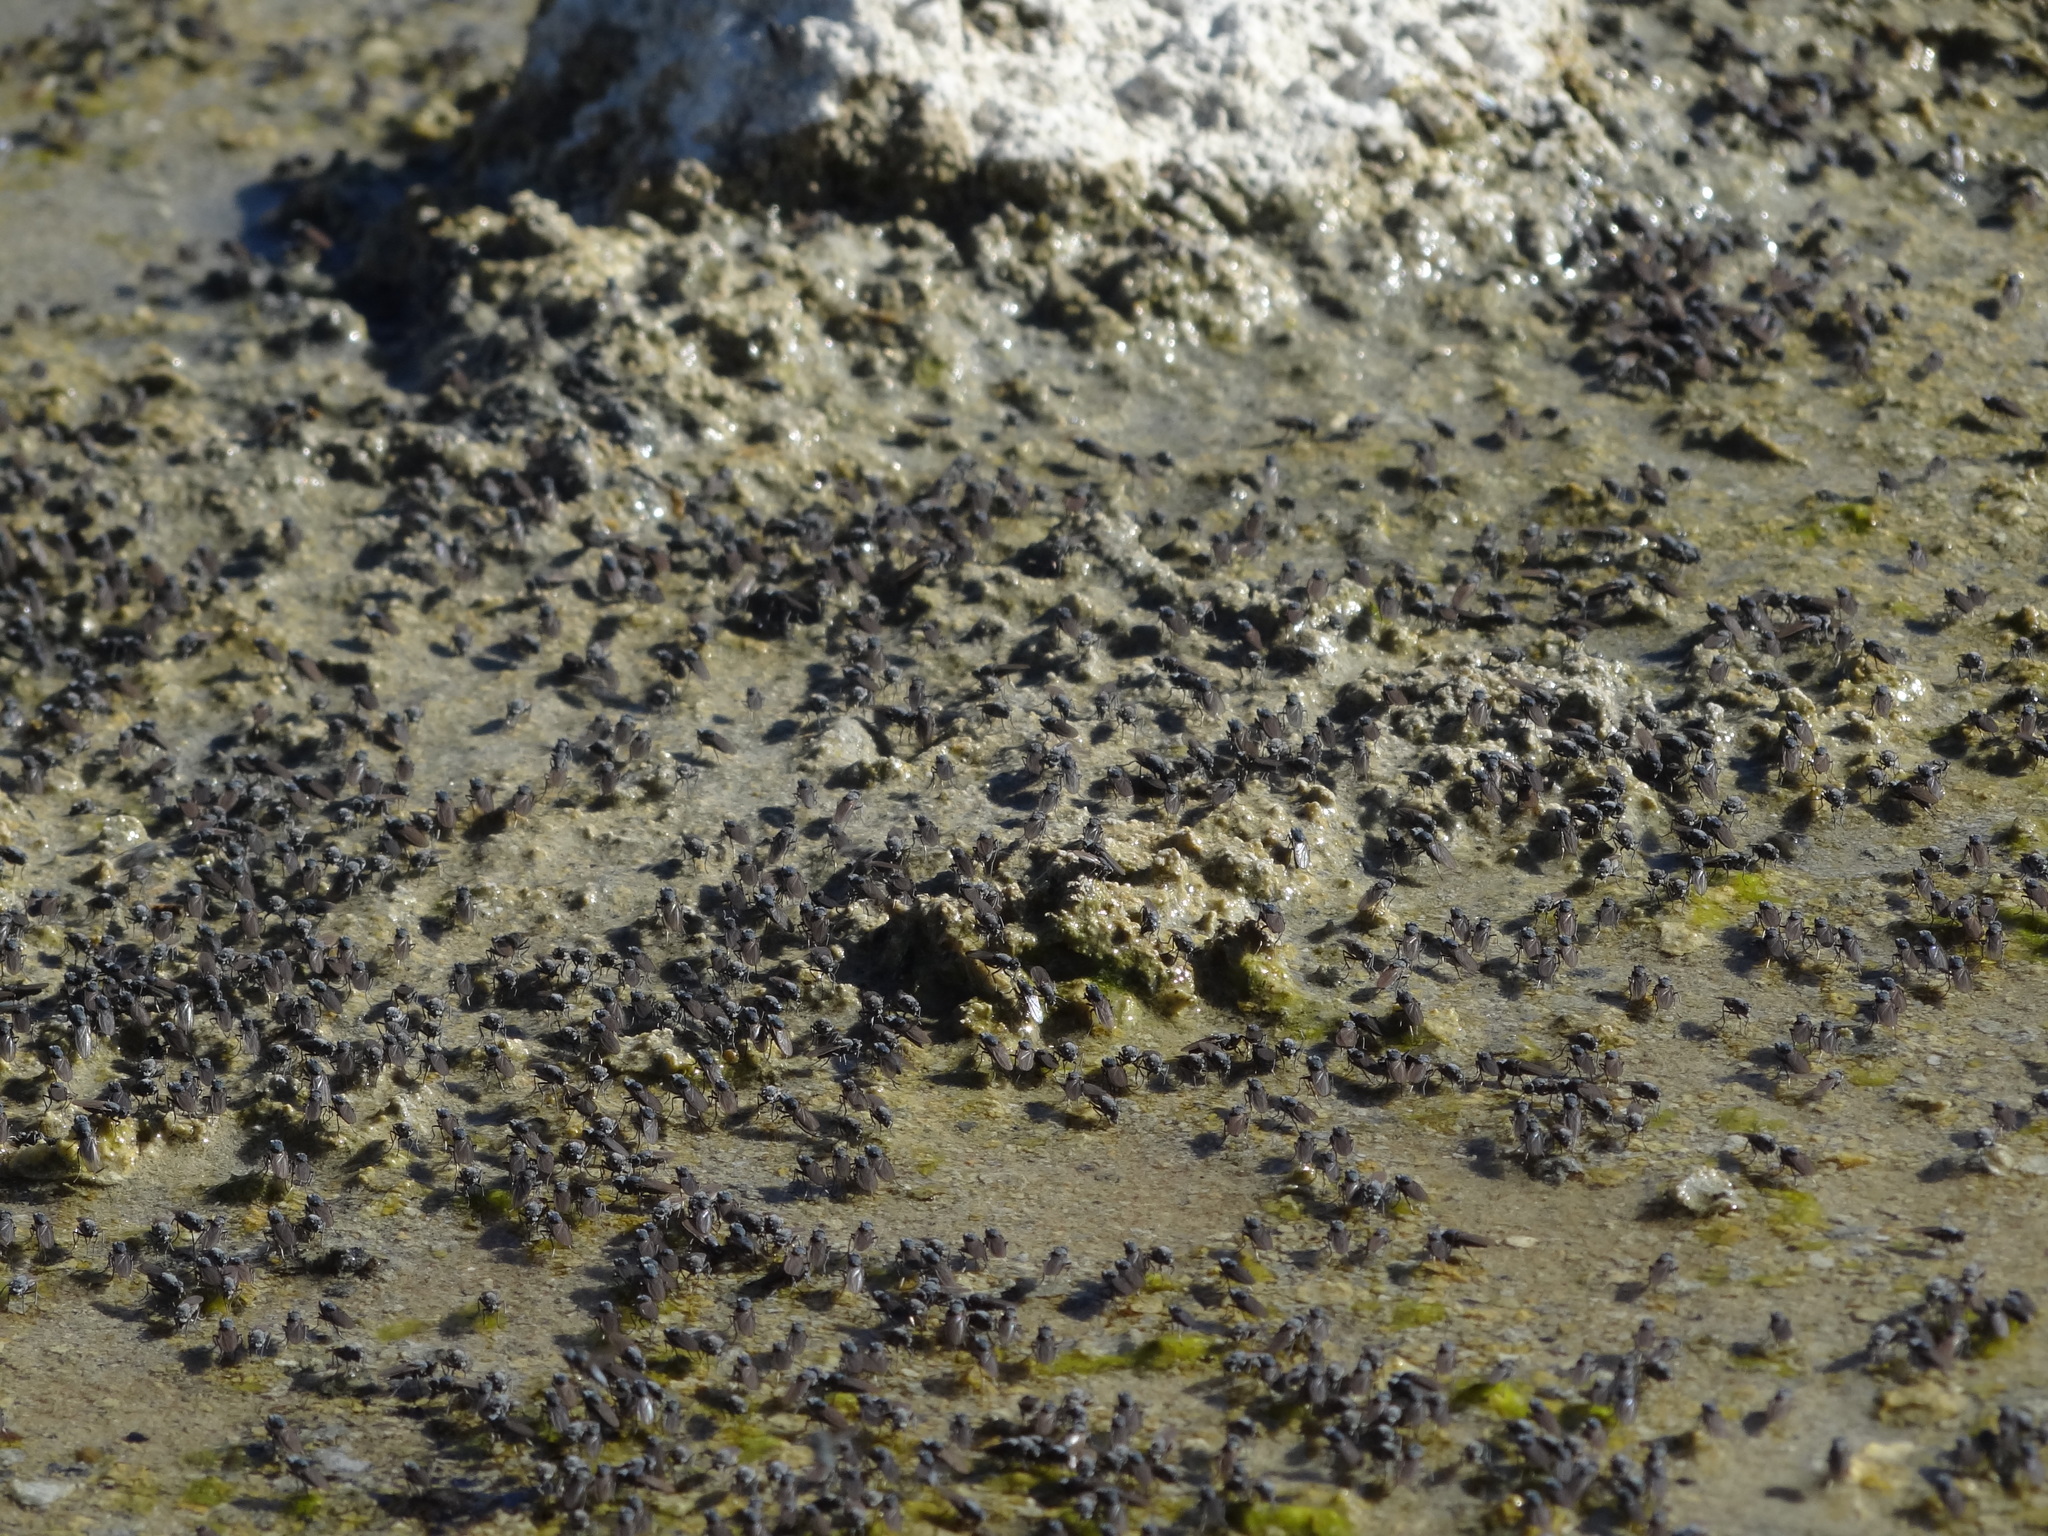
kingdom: Animalia
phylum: Arthropoda
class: Insecta
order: Diptera
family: Ephydridae
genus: Cirrula
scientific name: Cirrula hians
